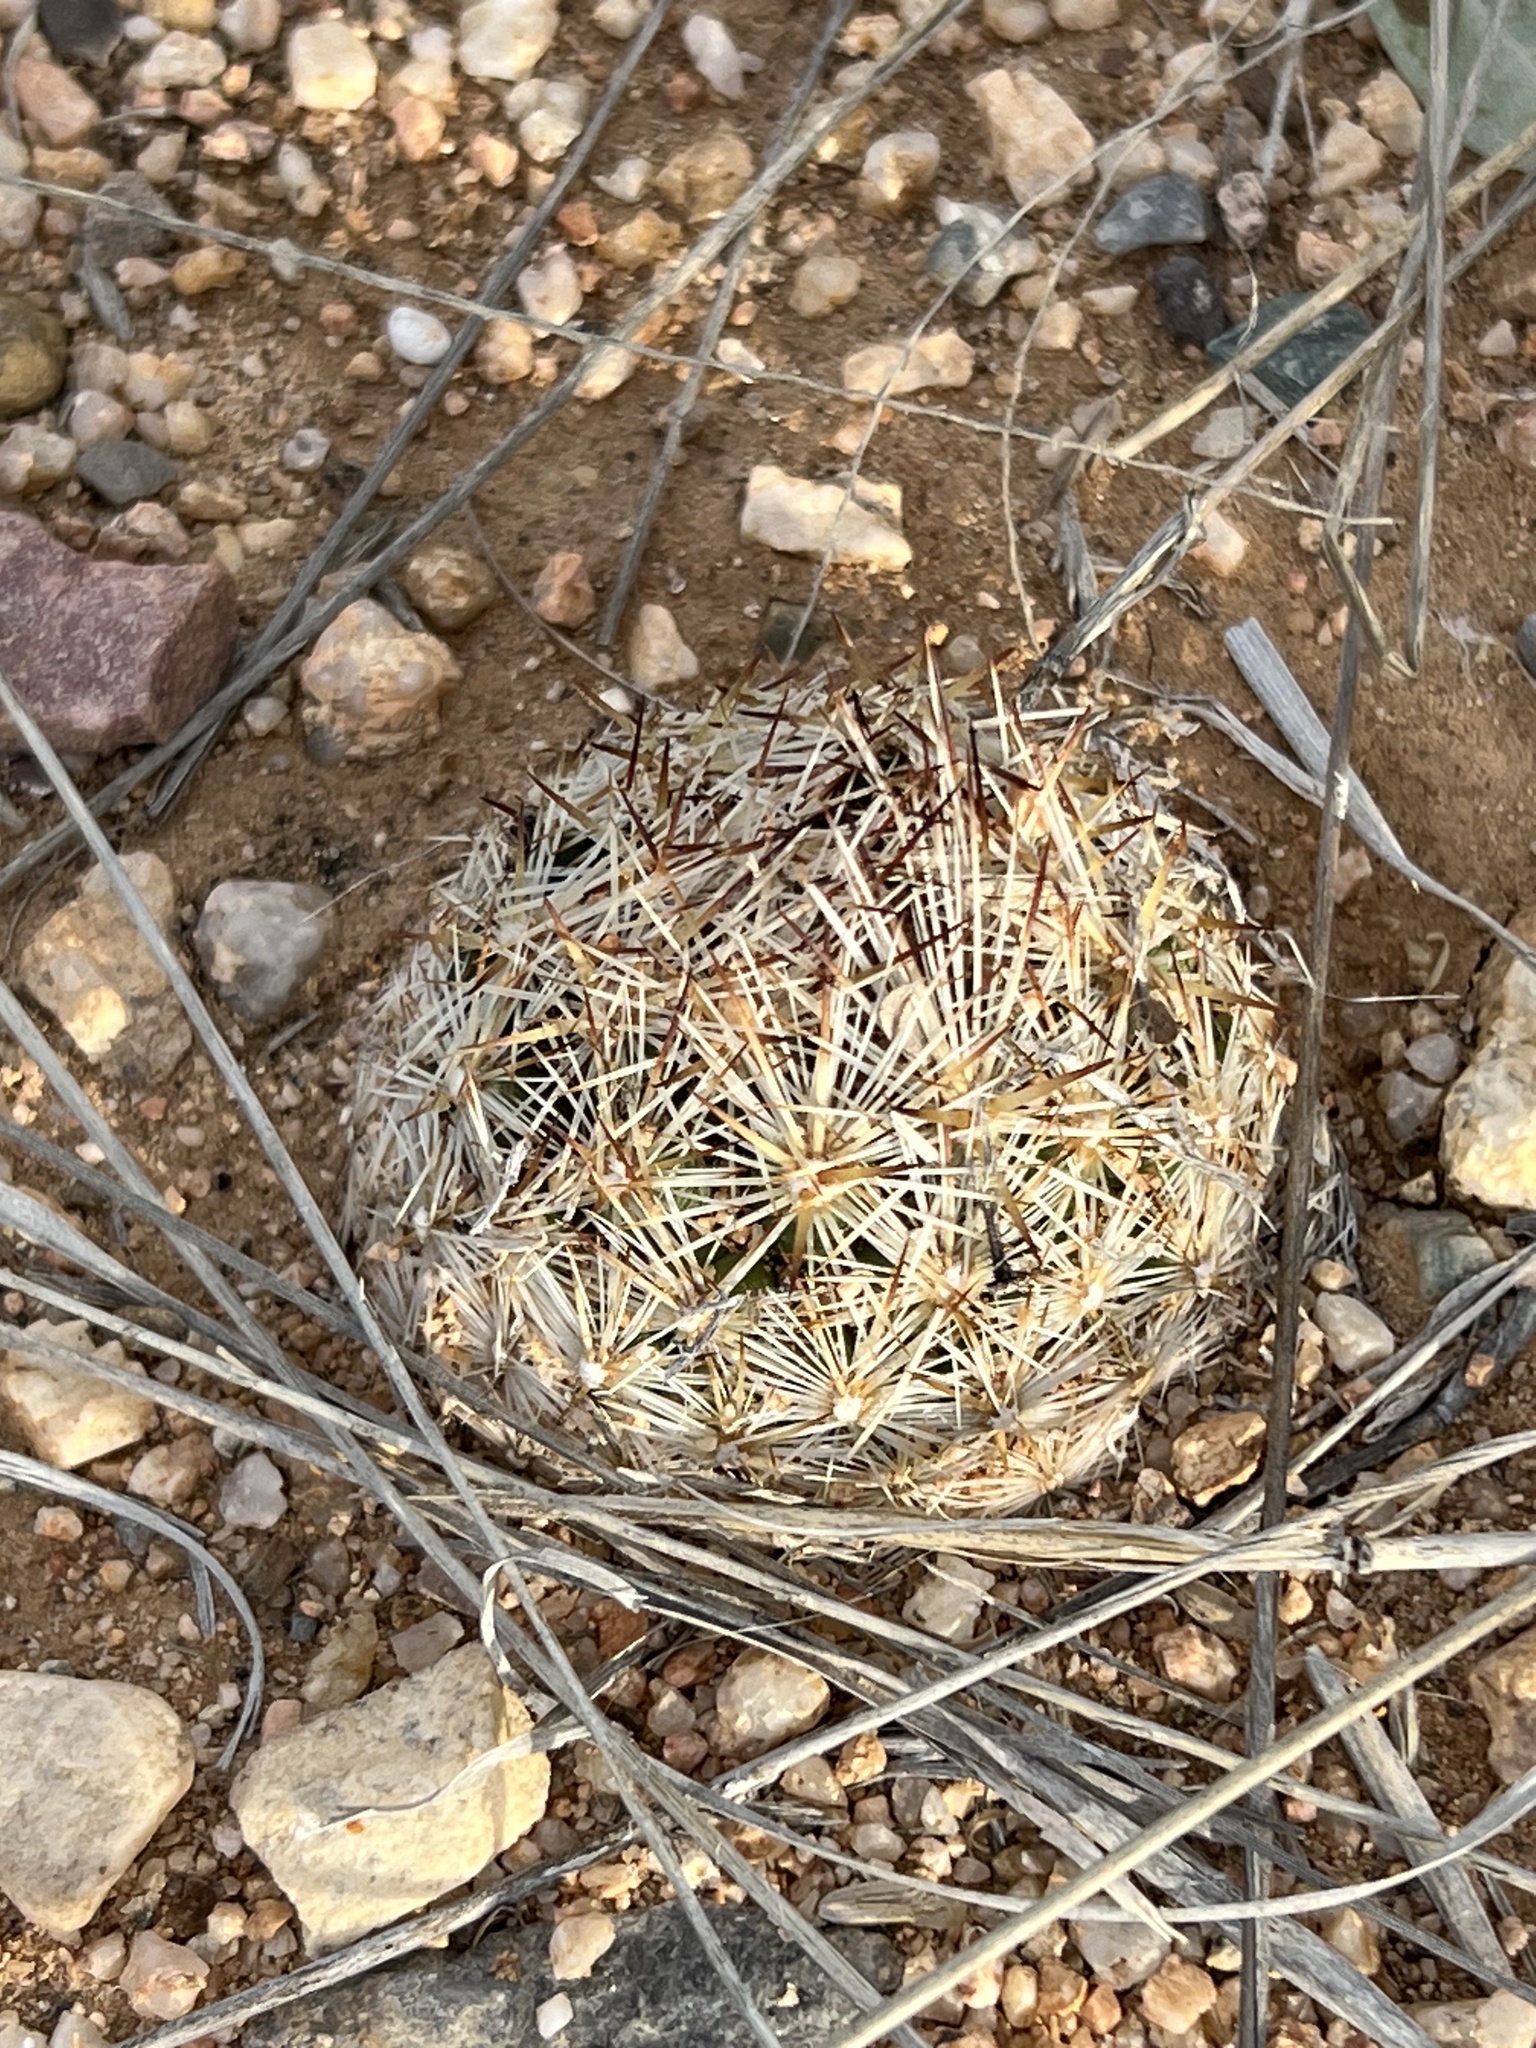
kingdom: Plantae
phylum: Tracheophyta
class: Magnoliopsida
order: Caryophyllales
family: Cactaceae
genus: Pelecyphora
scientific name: Pelecyphora vivipara
